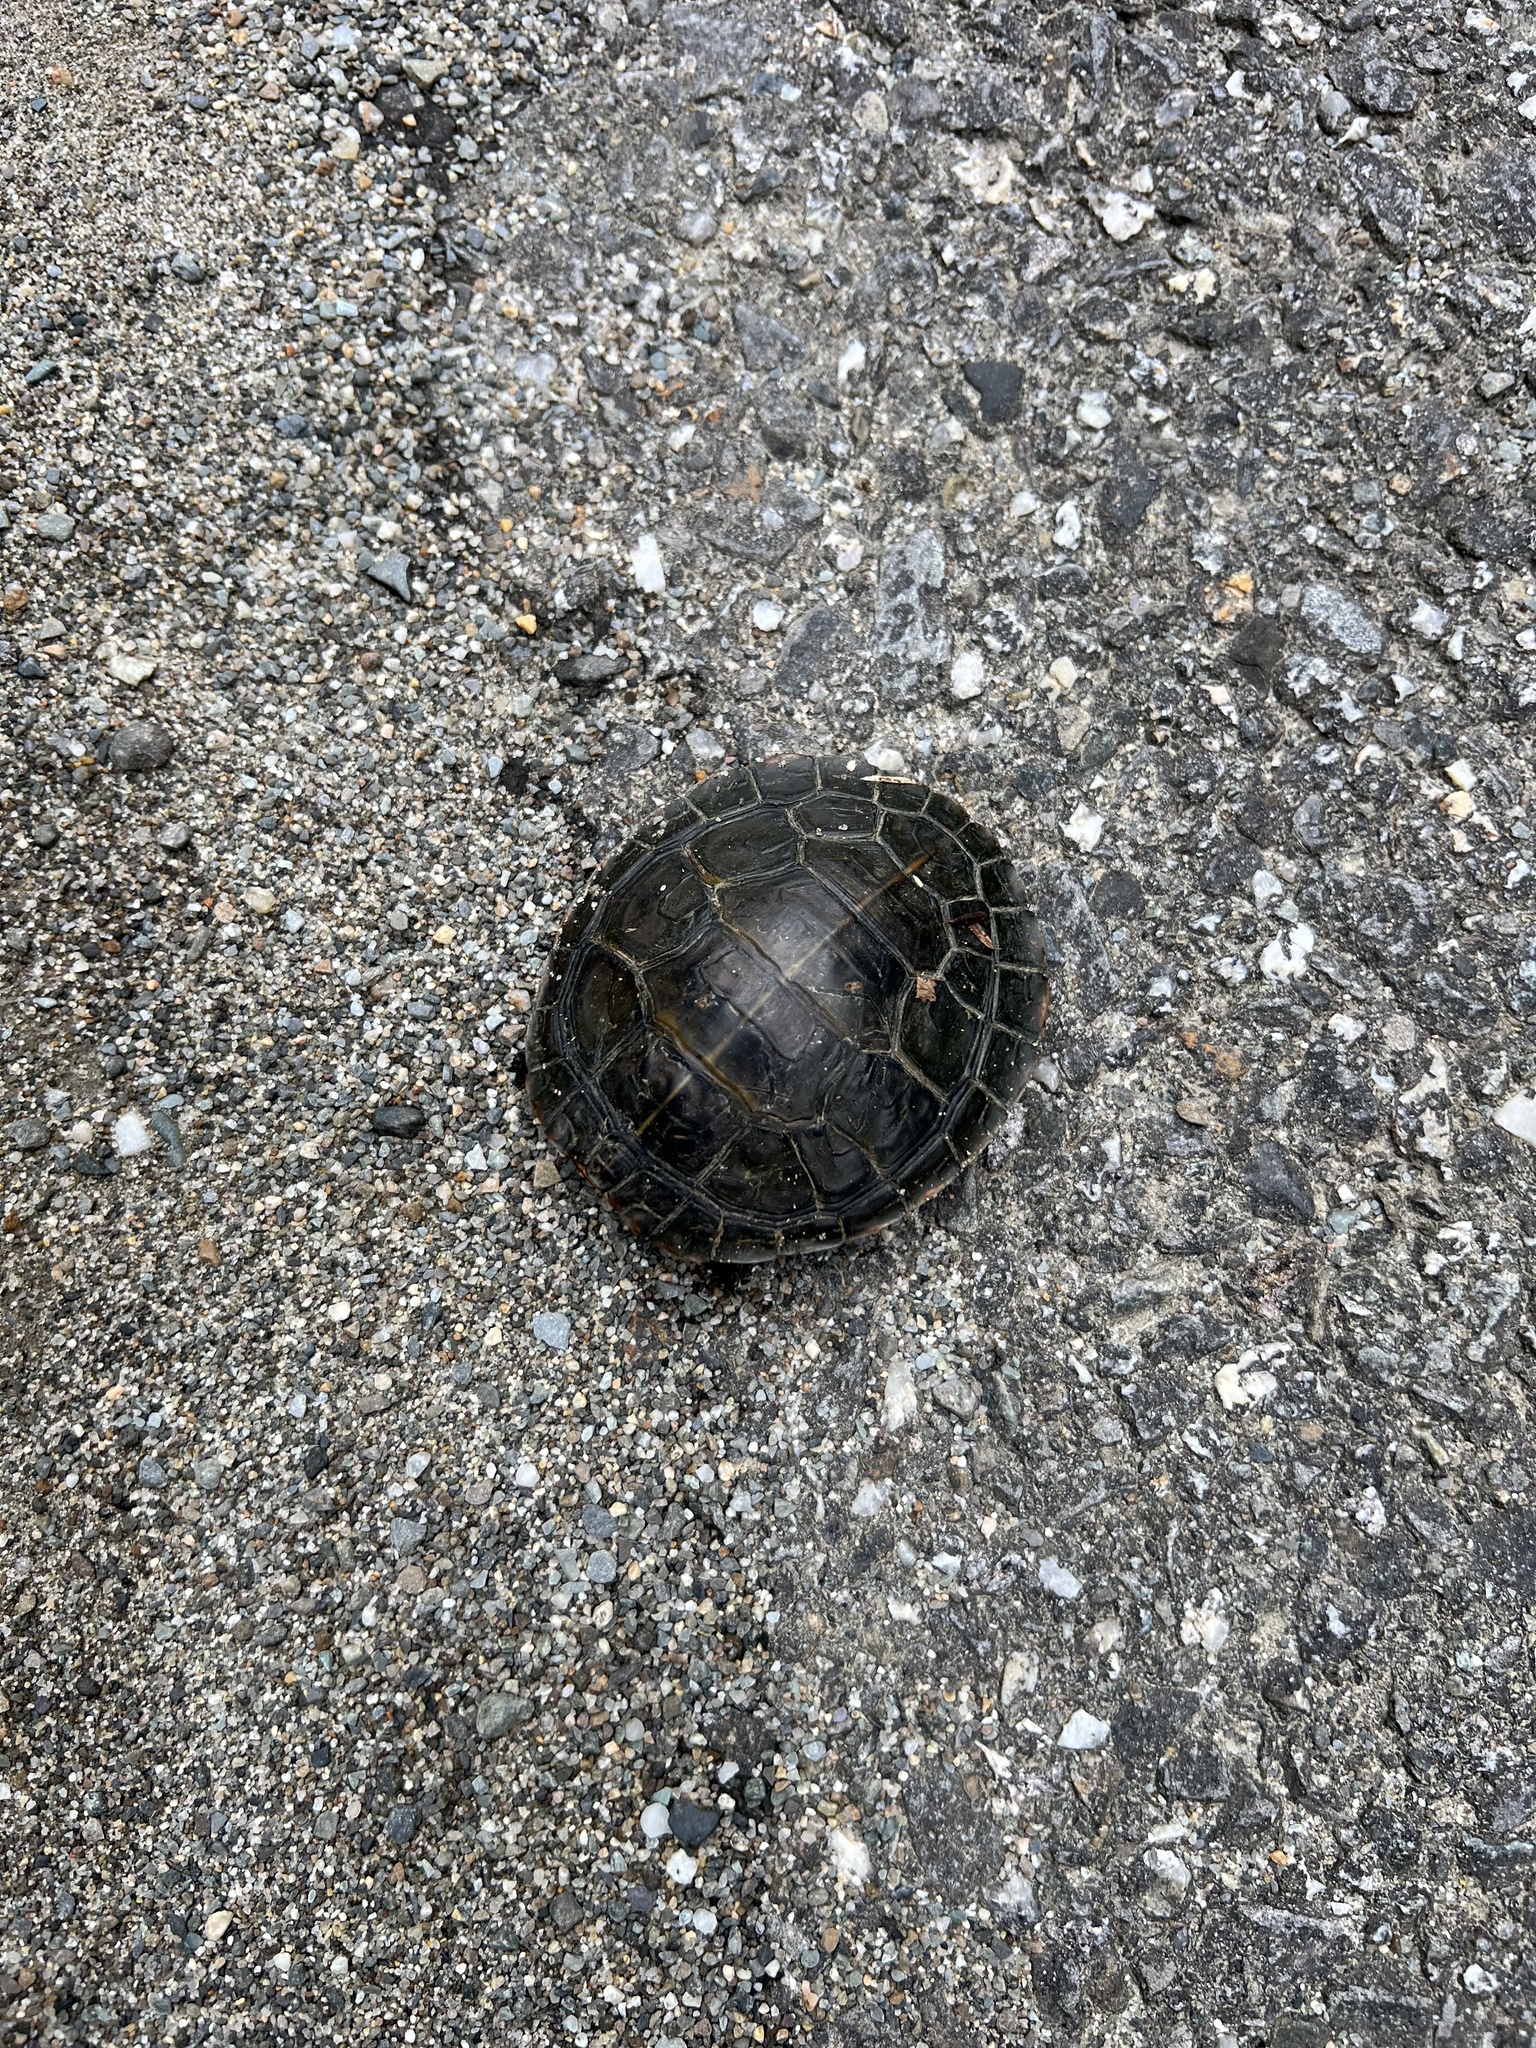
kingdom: Animalia
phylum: Chordata
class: Testudines
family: Emydidae
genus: Chrysemys
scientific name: Chrysemys picta
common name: Painted turtle
